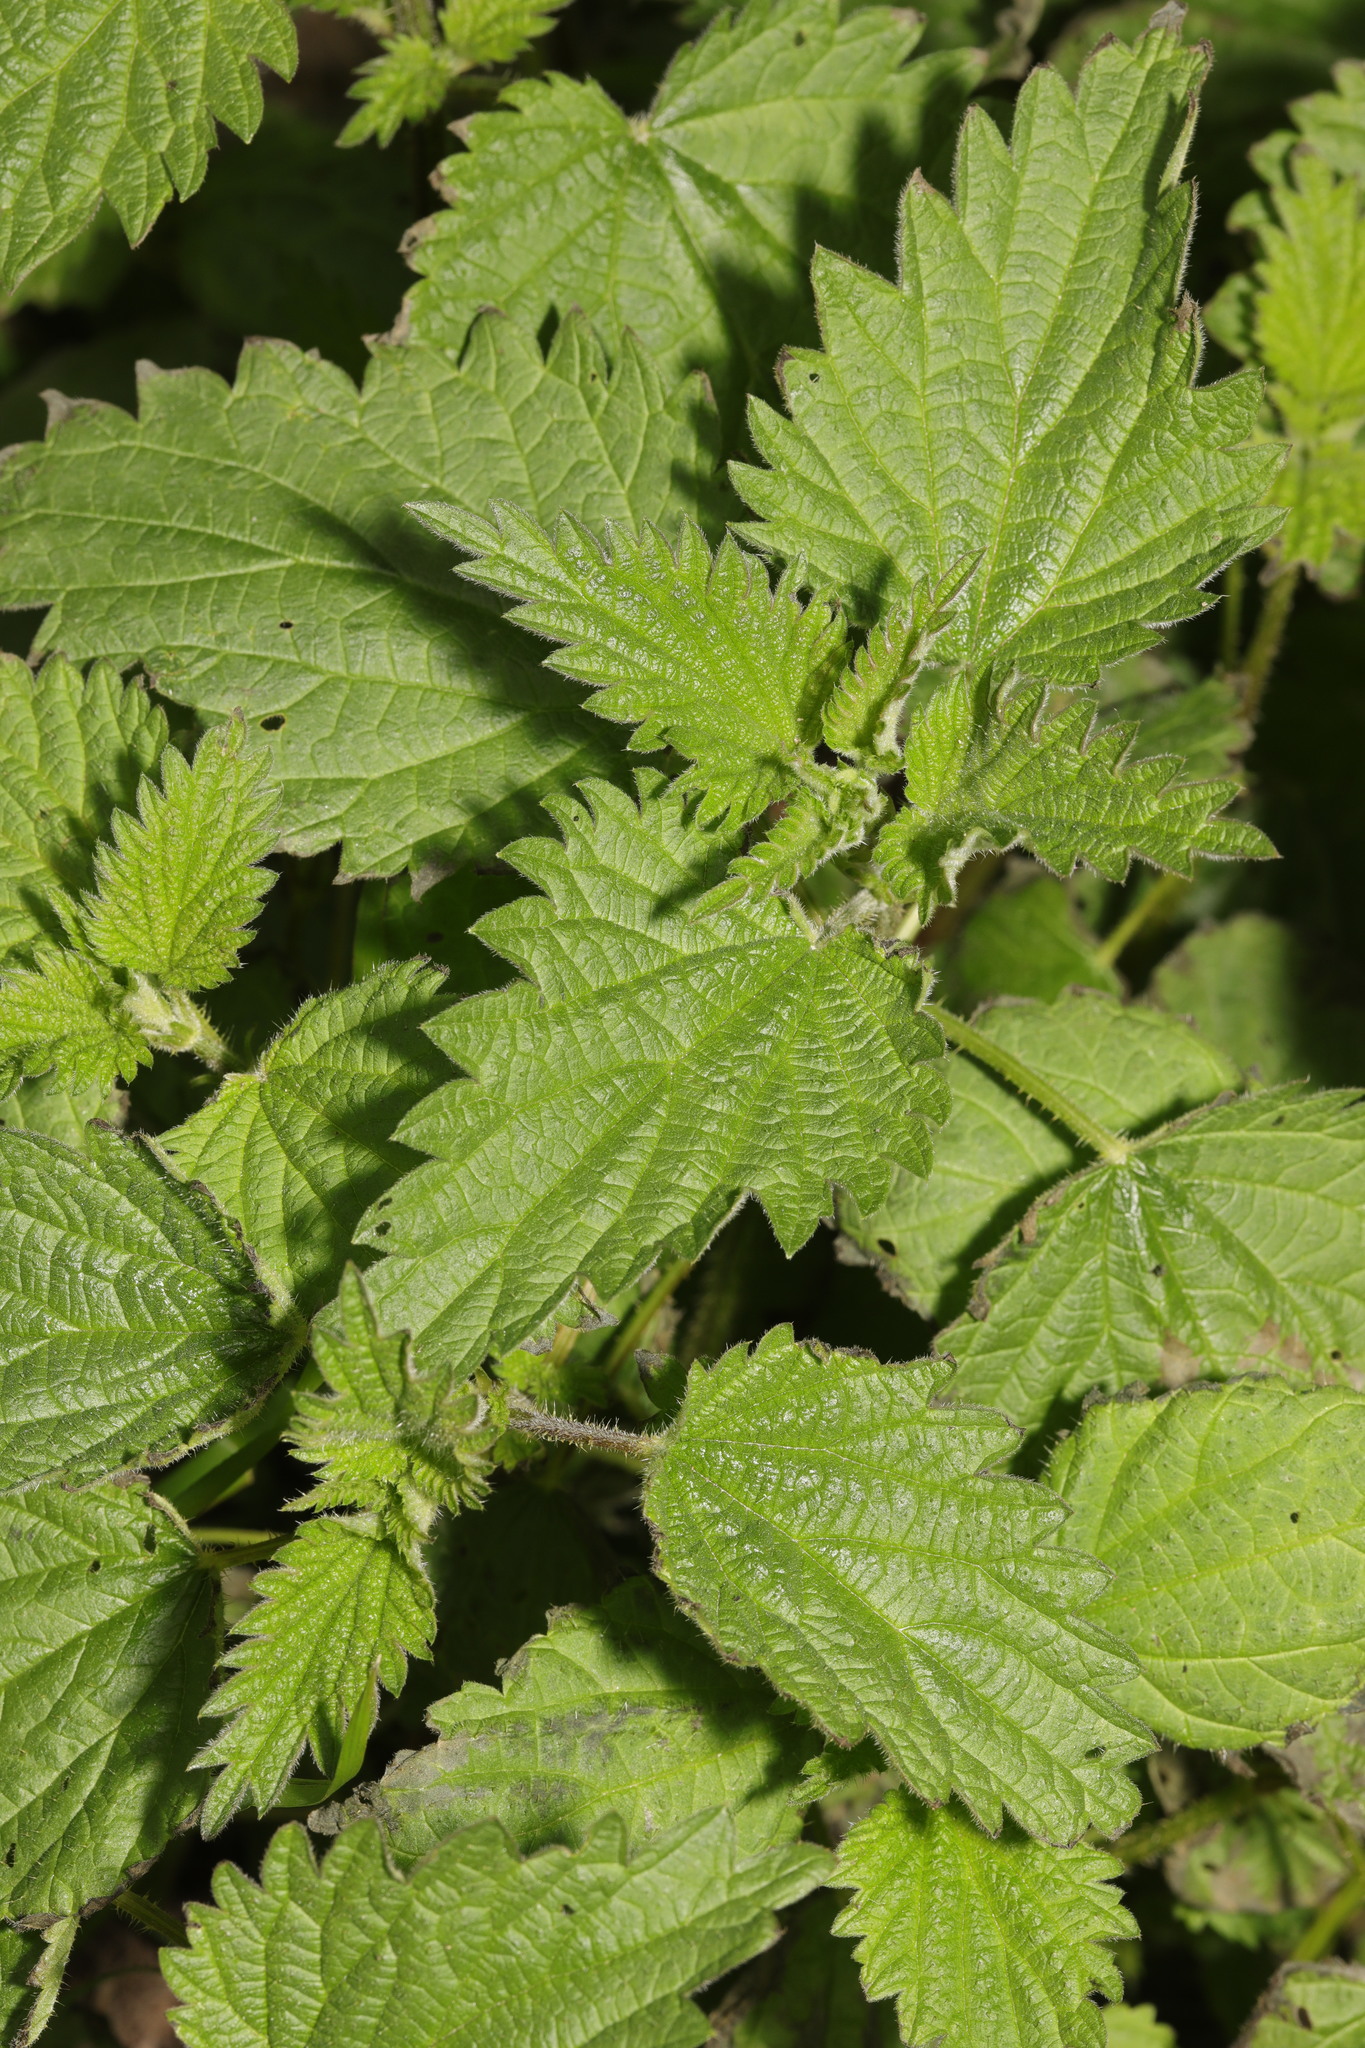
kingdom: Plantae
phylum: Tracheophyta
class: Magnoliopsida
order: Rosales
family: Urticaceae
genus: Urtica
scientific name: Urtica dioica
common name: Common nettle
